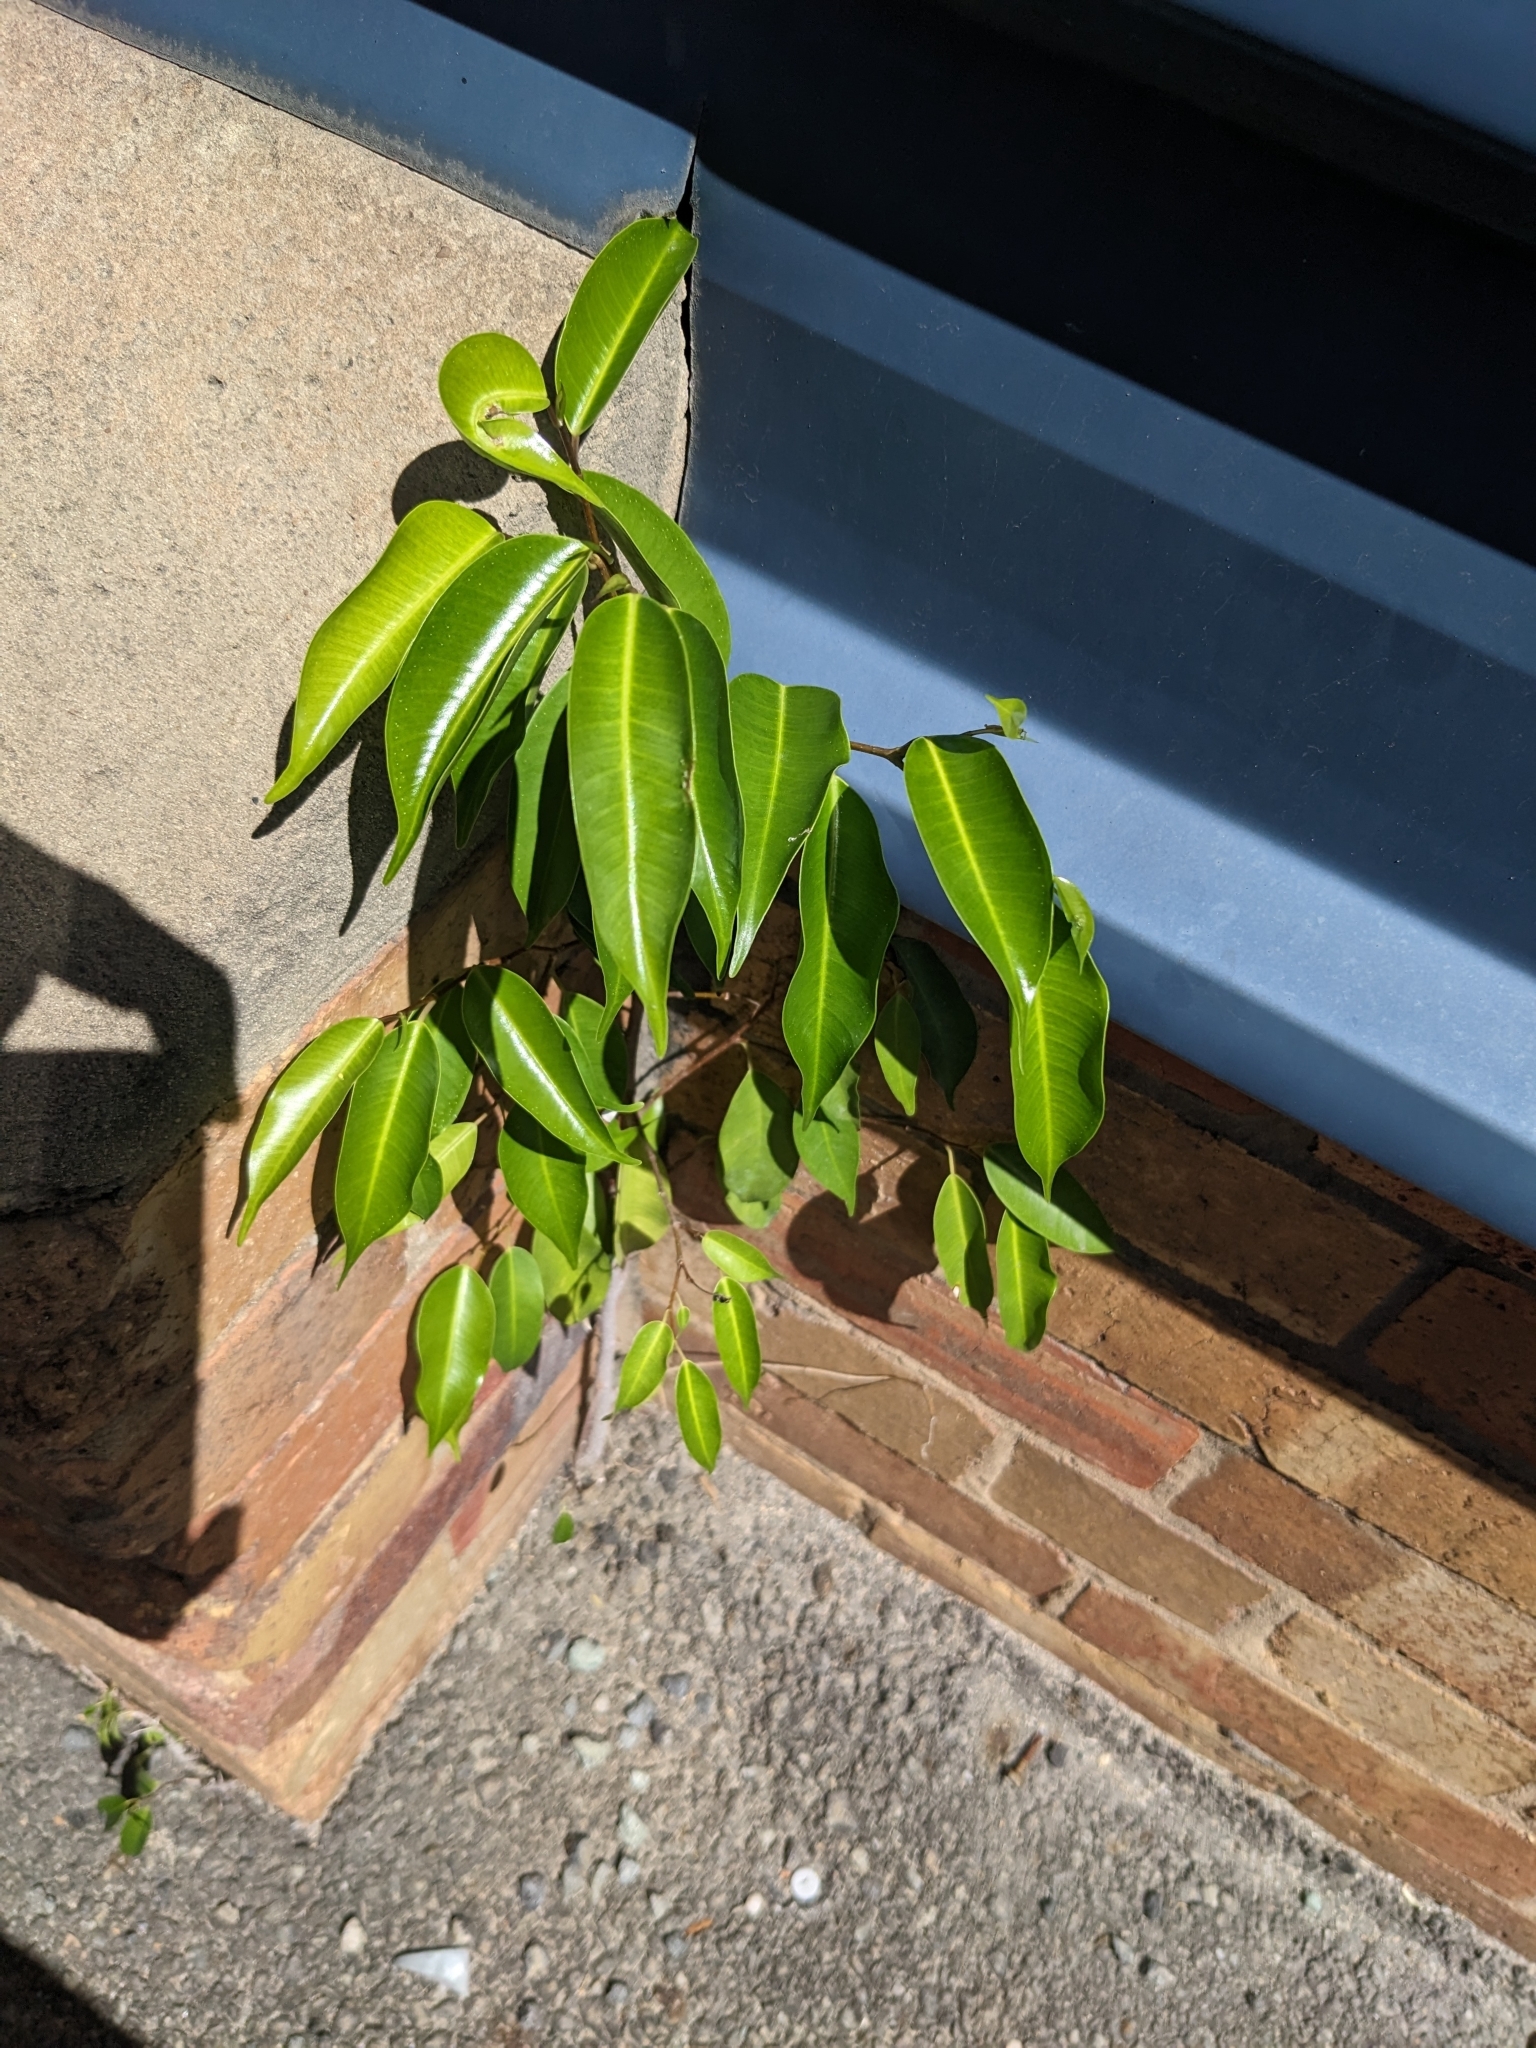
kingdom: Plantae
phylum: Tracheophyta
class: Magnoliopsida
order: Rosales
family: Moraceae
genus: Ficus
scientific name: Ficus benjamina
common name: Weeping fig
